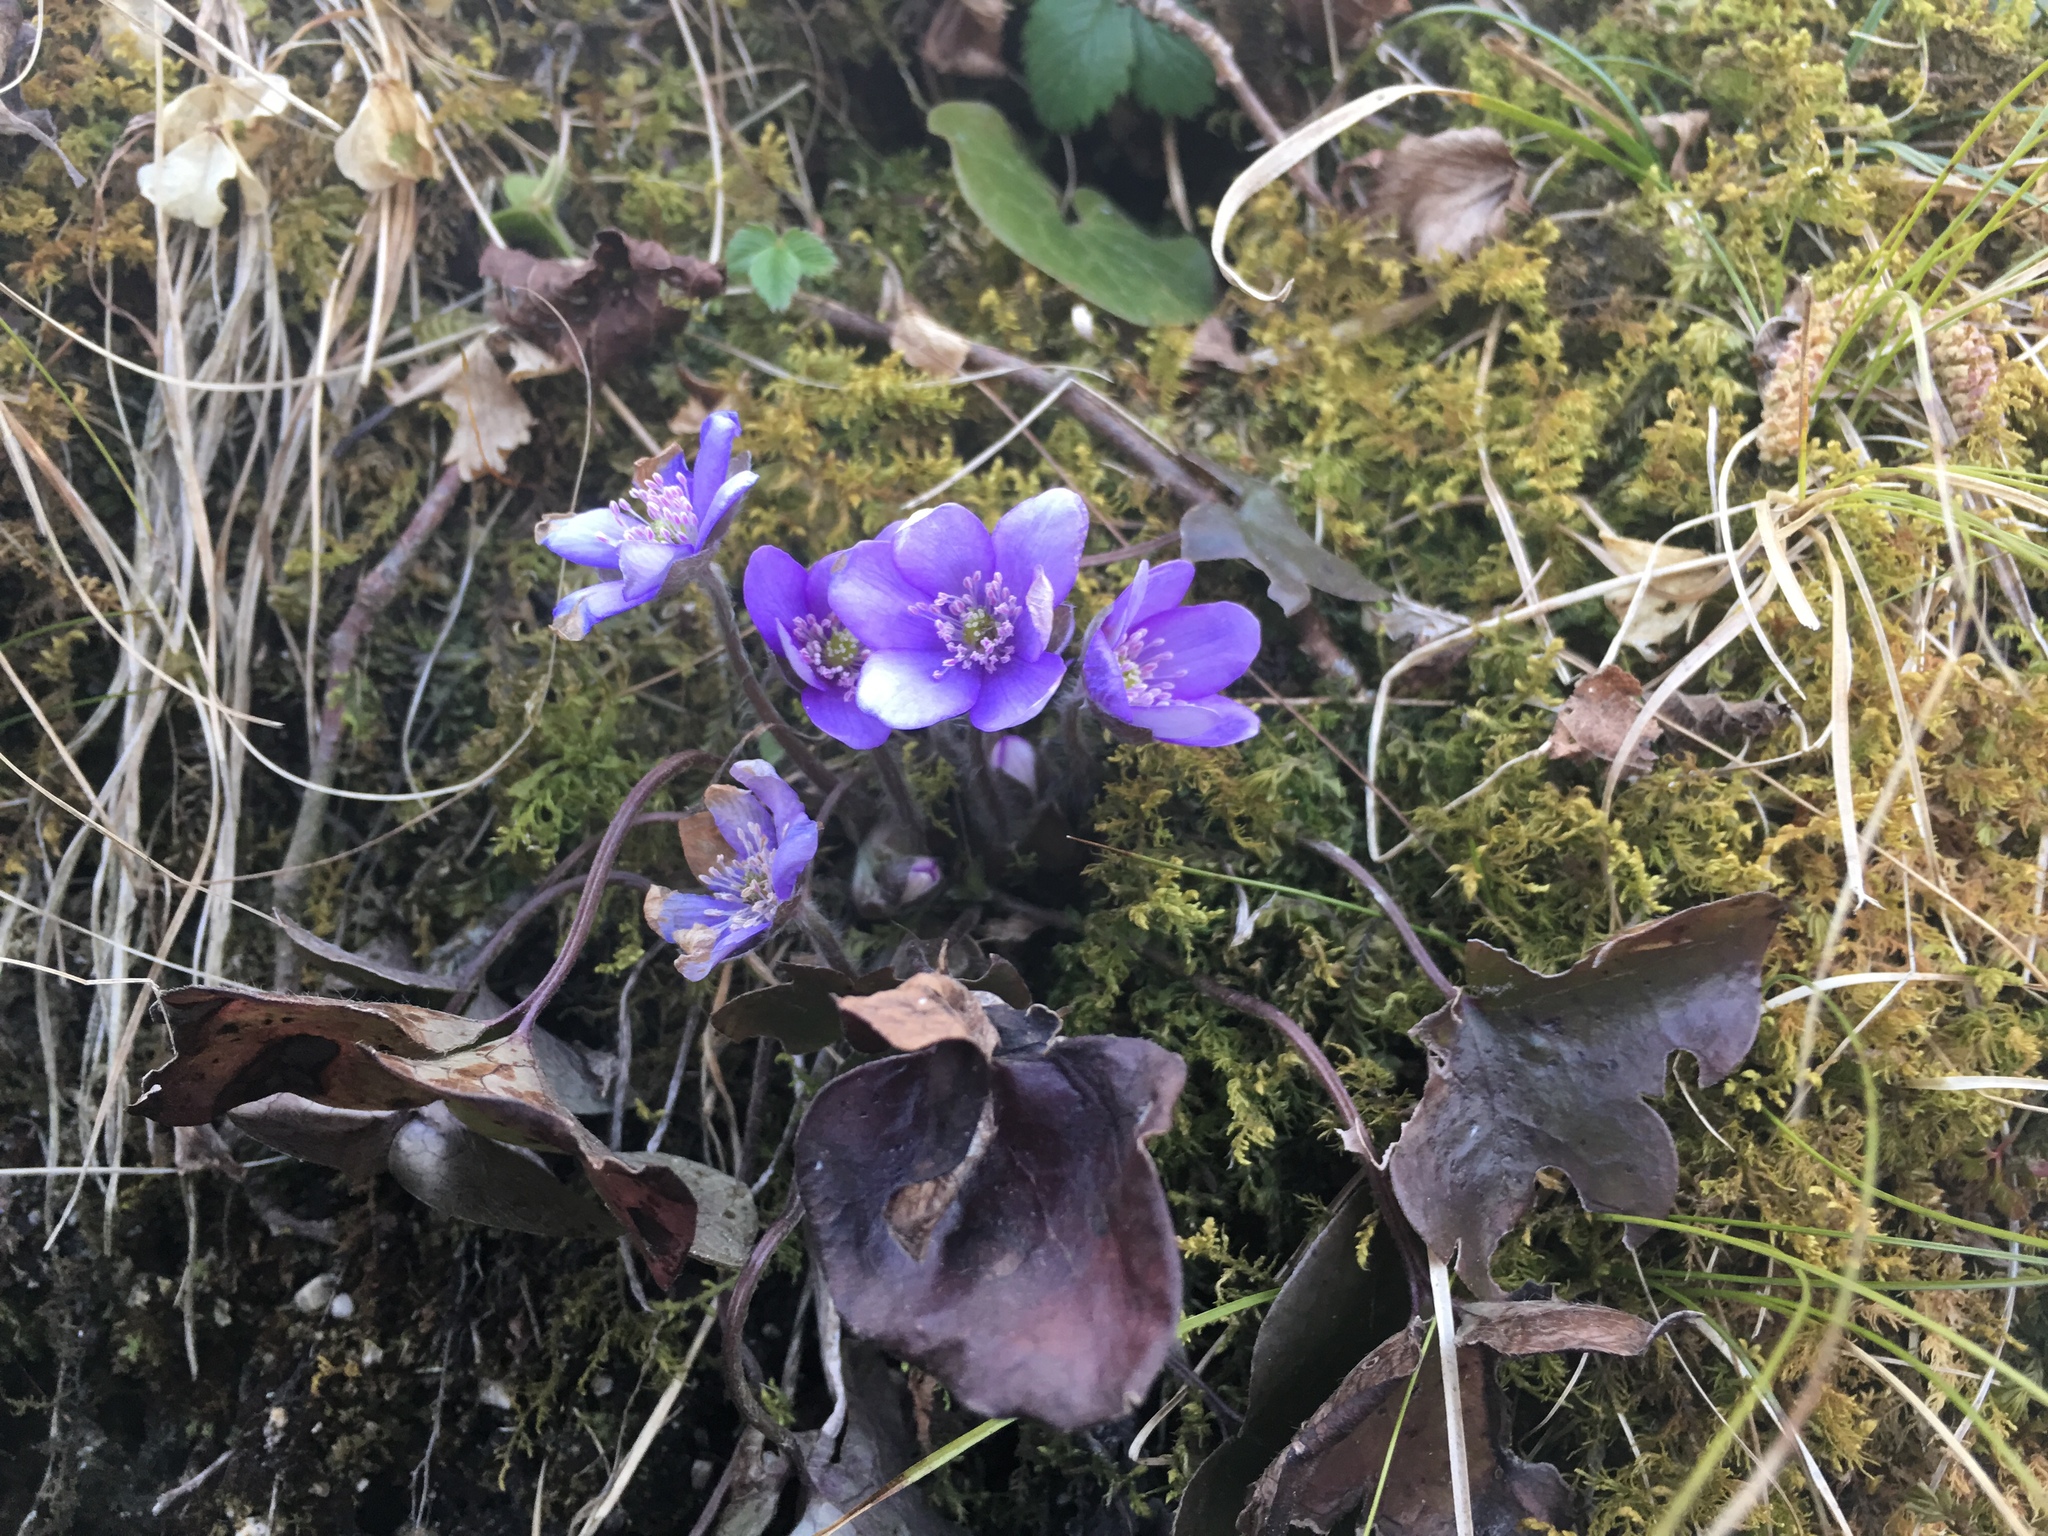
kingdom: Plantae
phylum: Tracheophyta
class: Magnoliopsida
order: Ranunculales
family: Ranunculaceae
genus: Hepatica
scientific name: Hepatica nobilis
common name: Liverleaf
